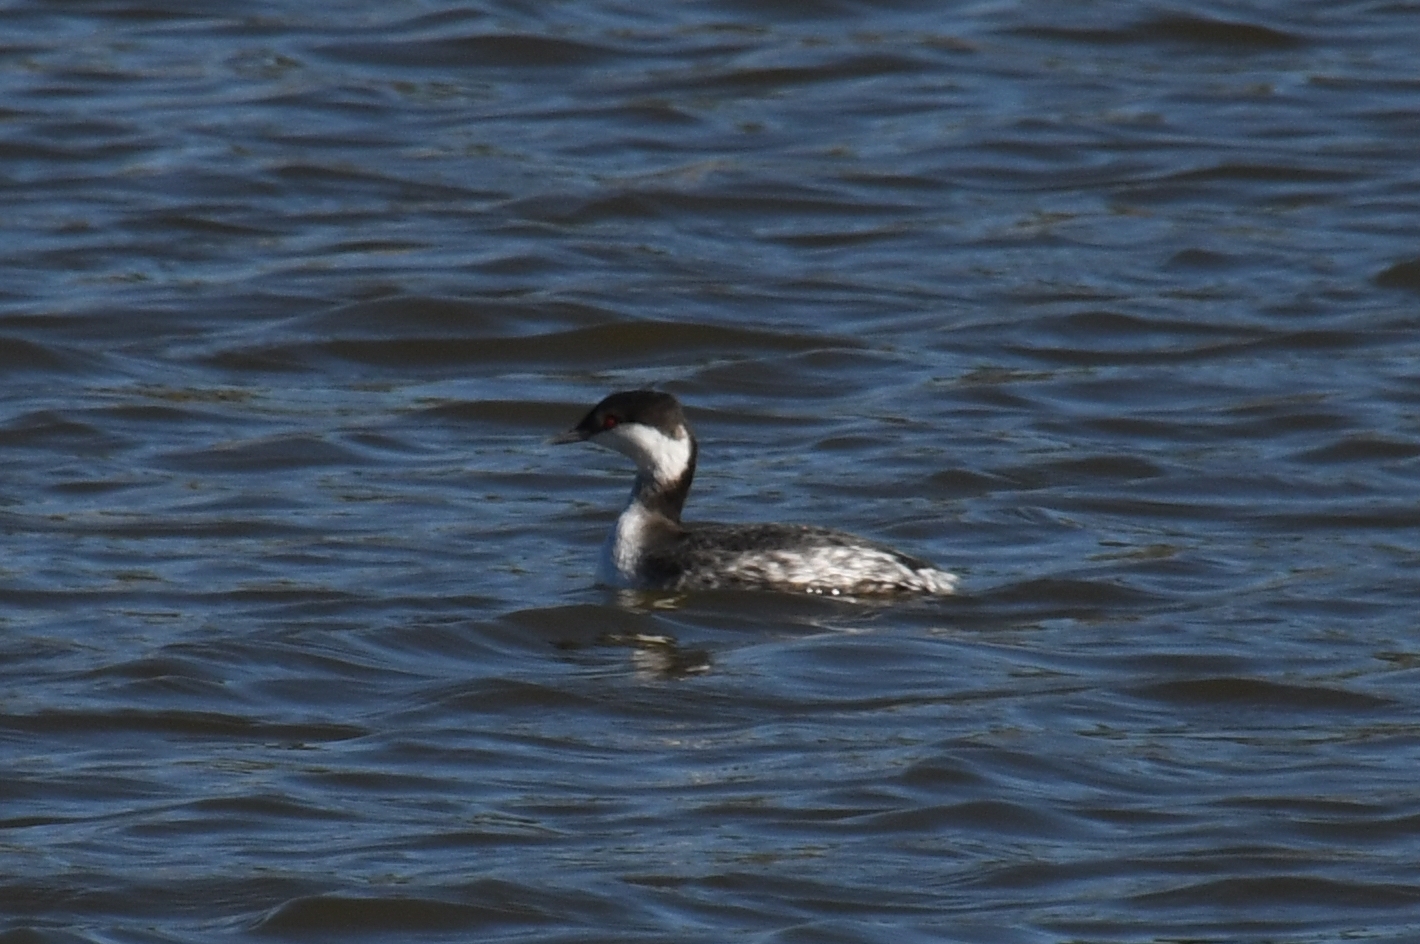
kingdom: Animalia
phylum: Chordata
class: Aves
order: Podicipediformes
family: Podicipedidae
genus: Podiceps
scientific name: Podiceps auritus
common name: Horned grebe
